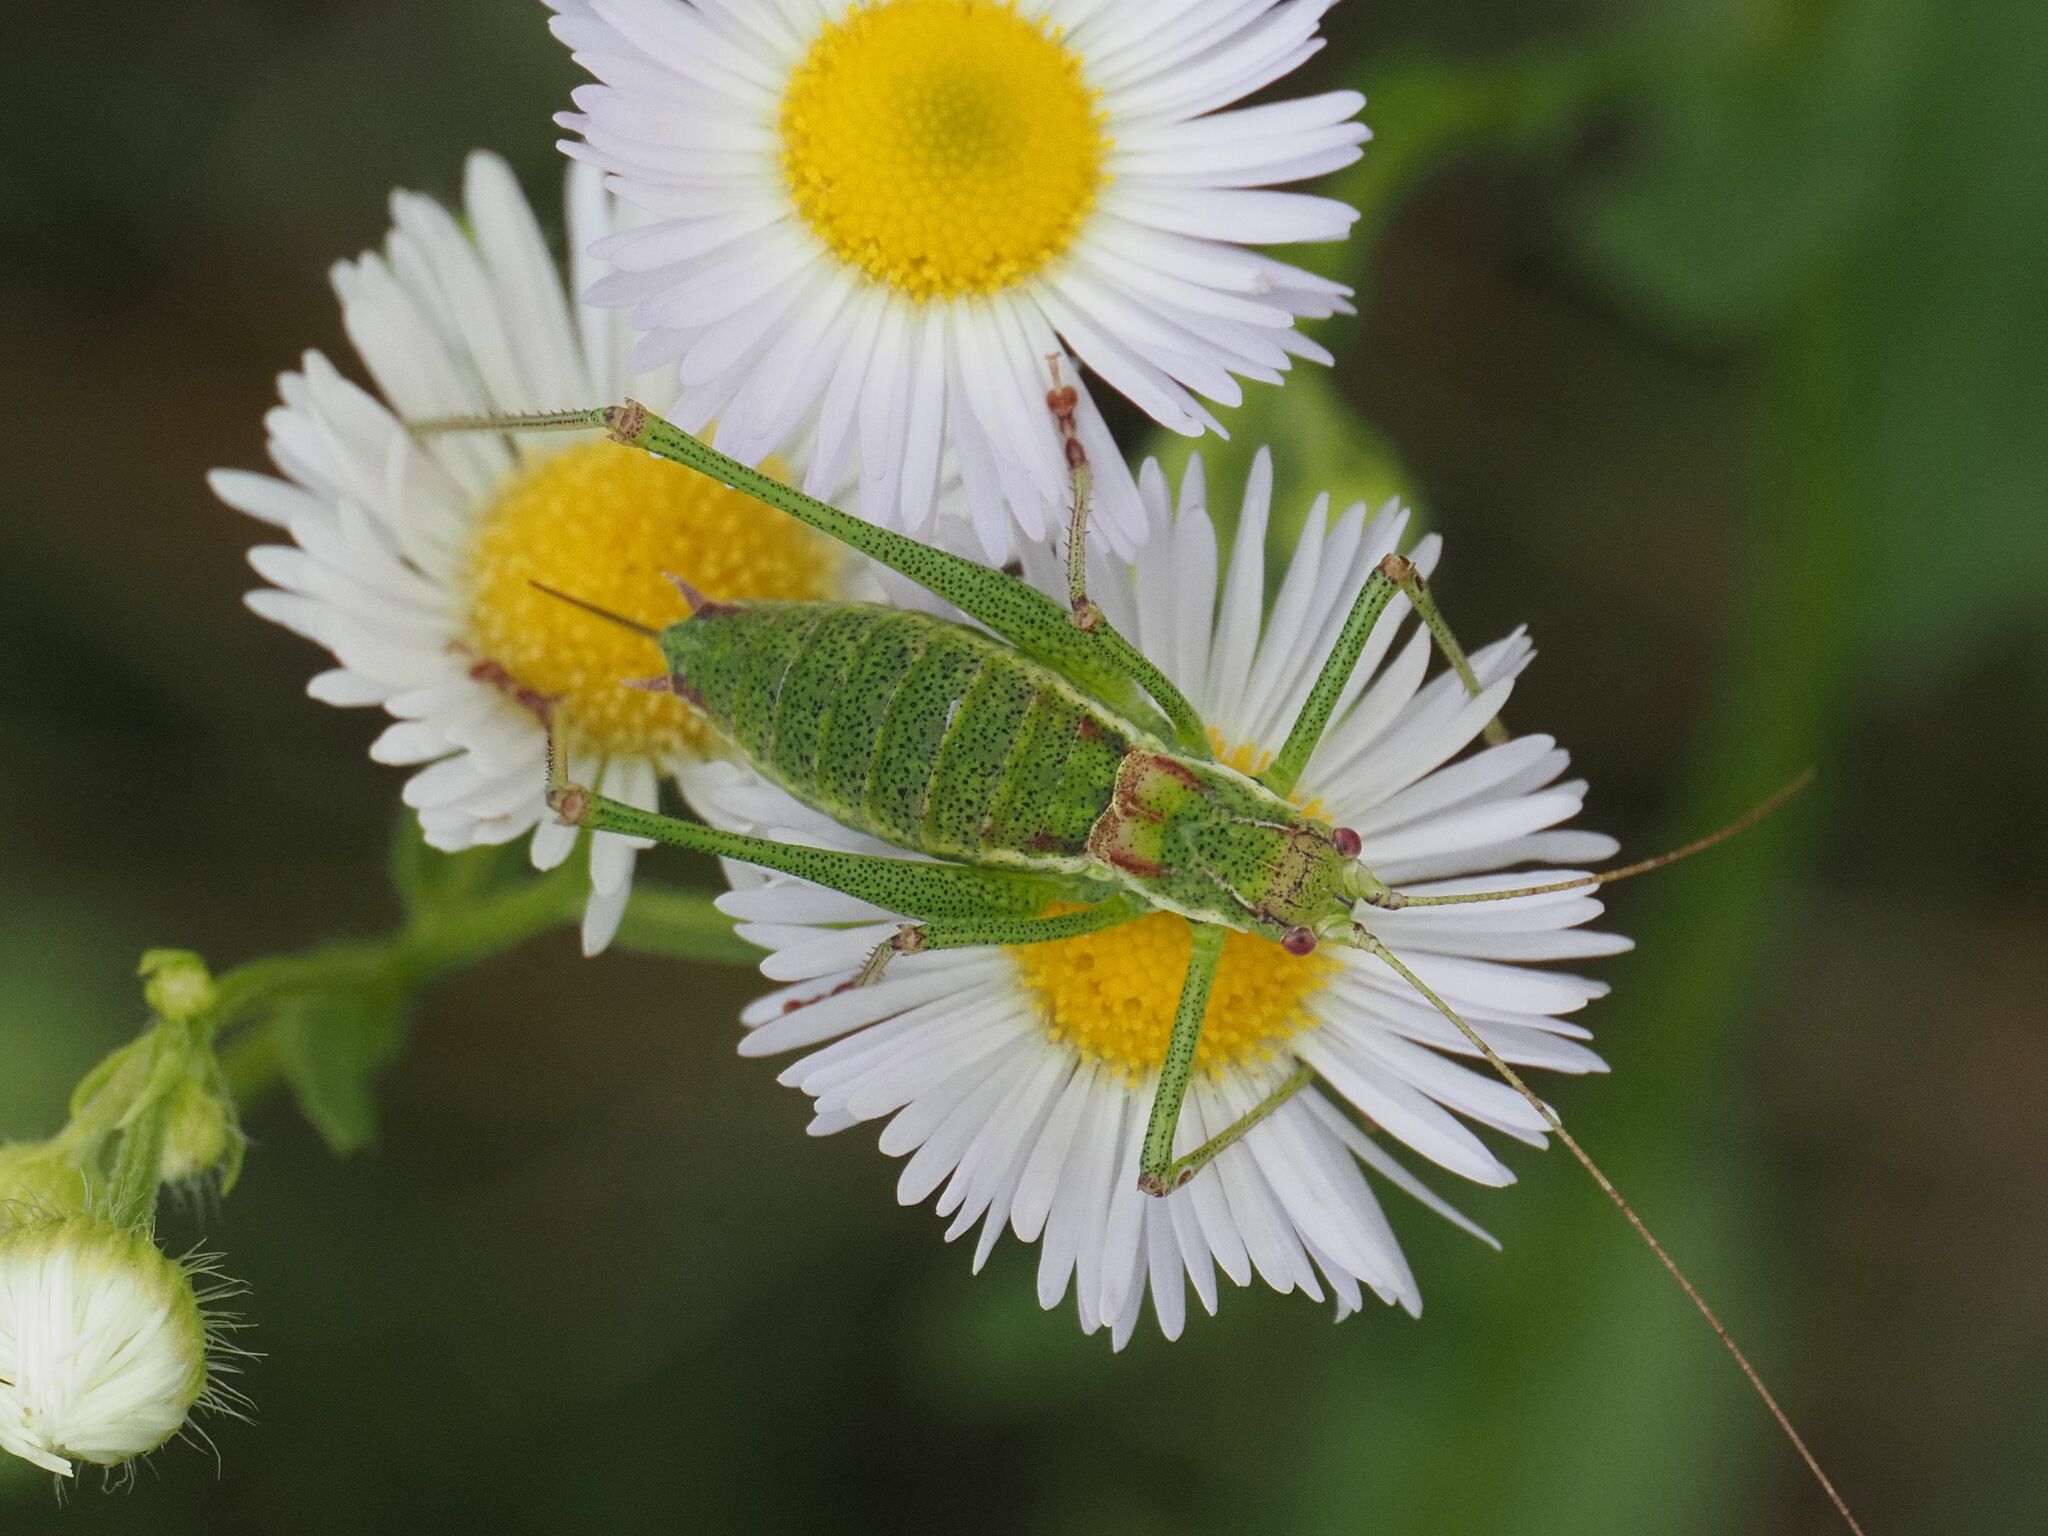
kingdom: Animalia
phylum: Arthropoda
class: Insecta
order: Orthoptera
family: Tettigoniidae
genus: Leptophyes
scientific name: Leptophyes albovittata
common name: Striped bush-cricket
